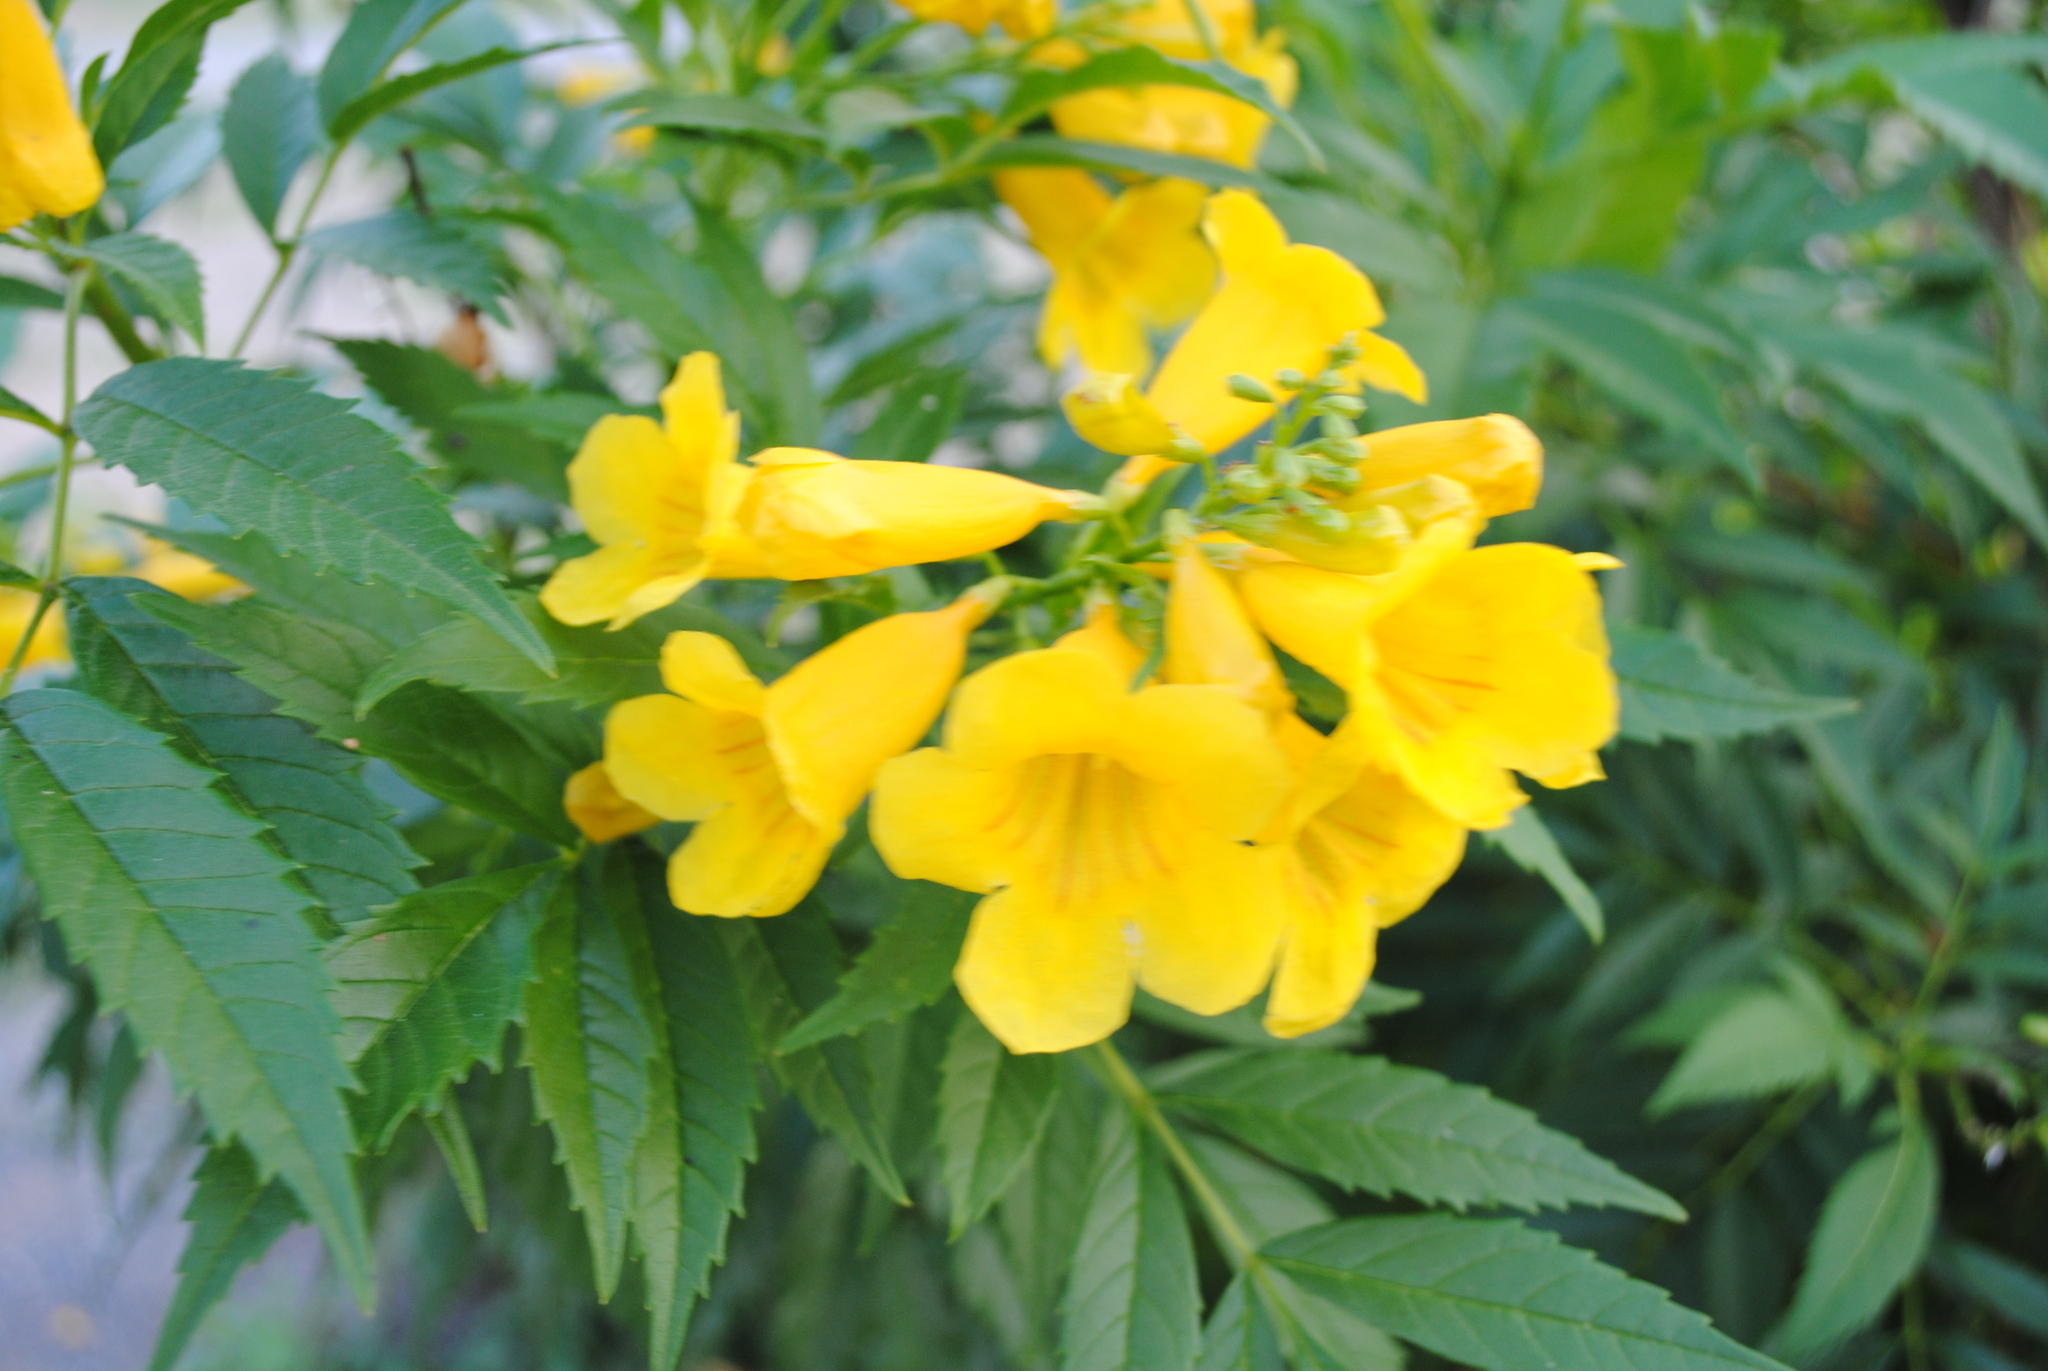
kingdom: Plantae
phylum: Tracheophyta
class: Magnoliopsida
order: Lamiales
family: Bignoniaceae
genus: Tecoma
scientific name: Tecoma stans
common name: Yellow trumpetbush
